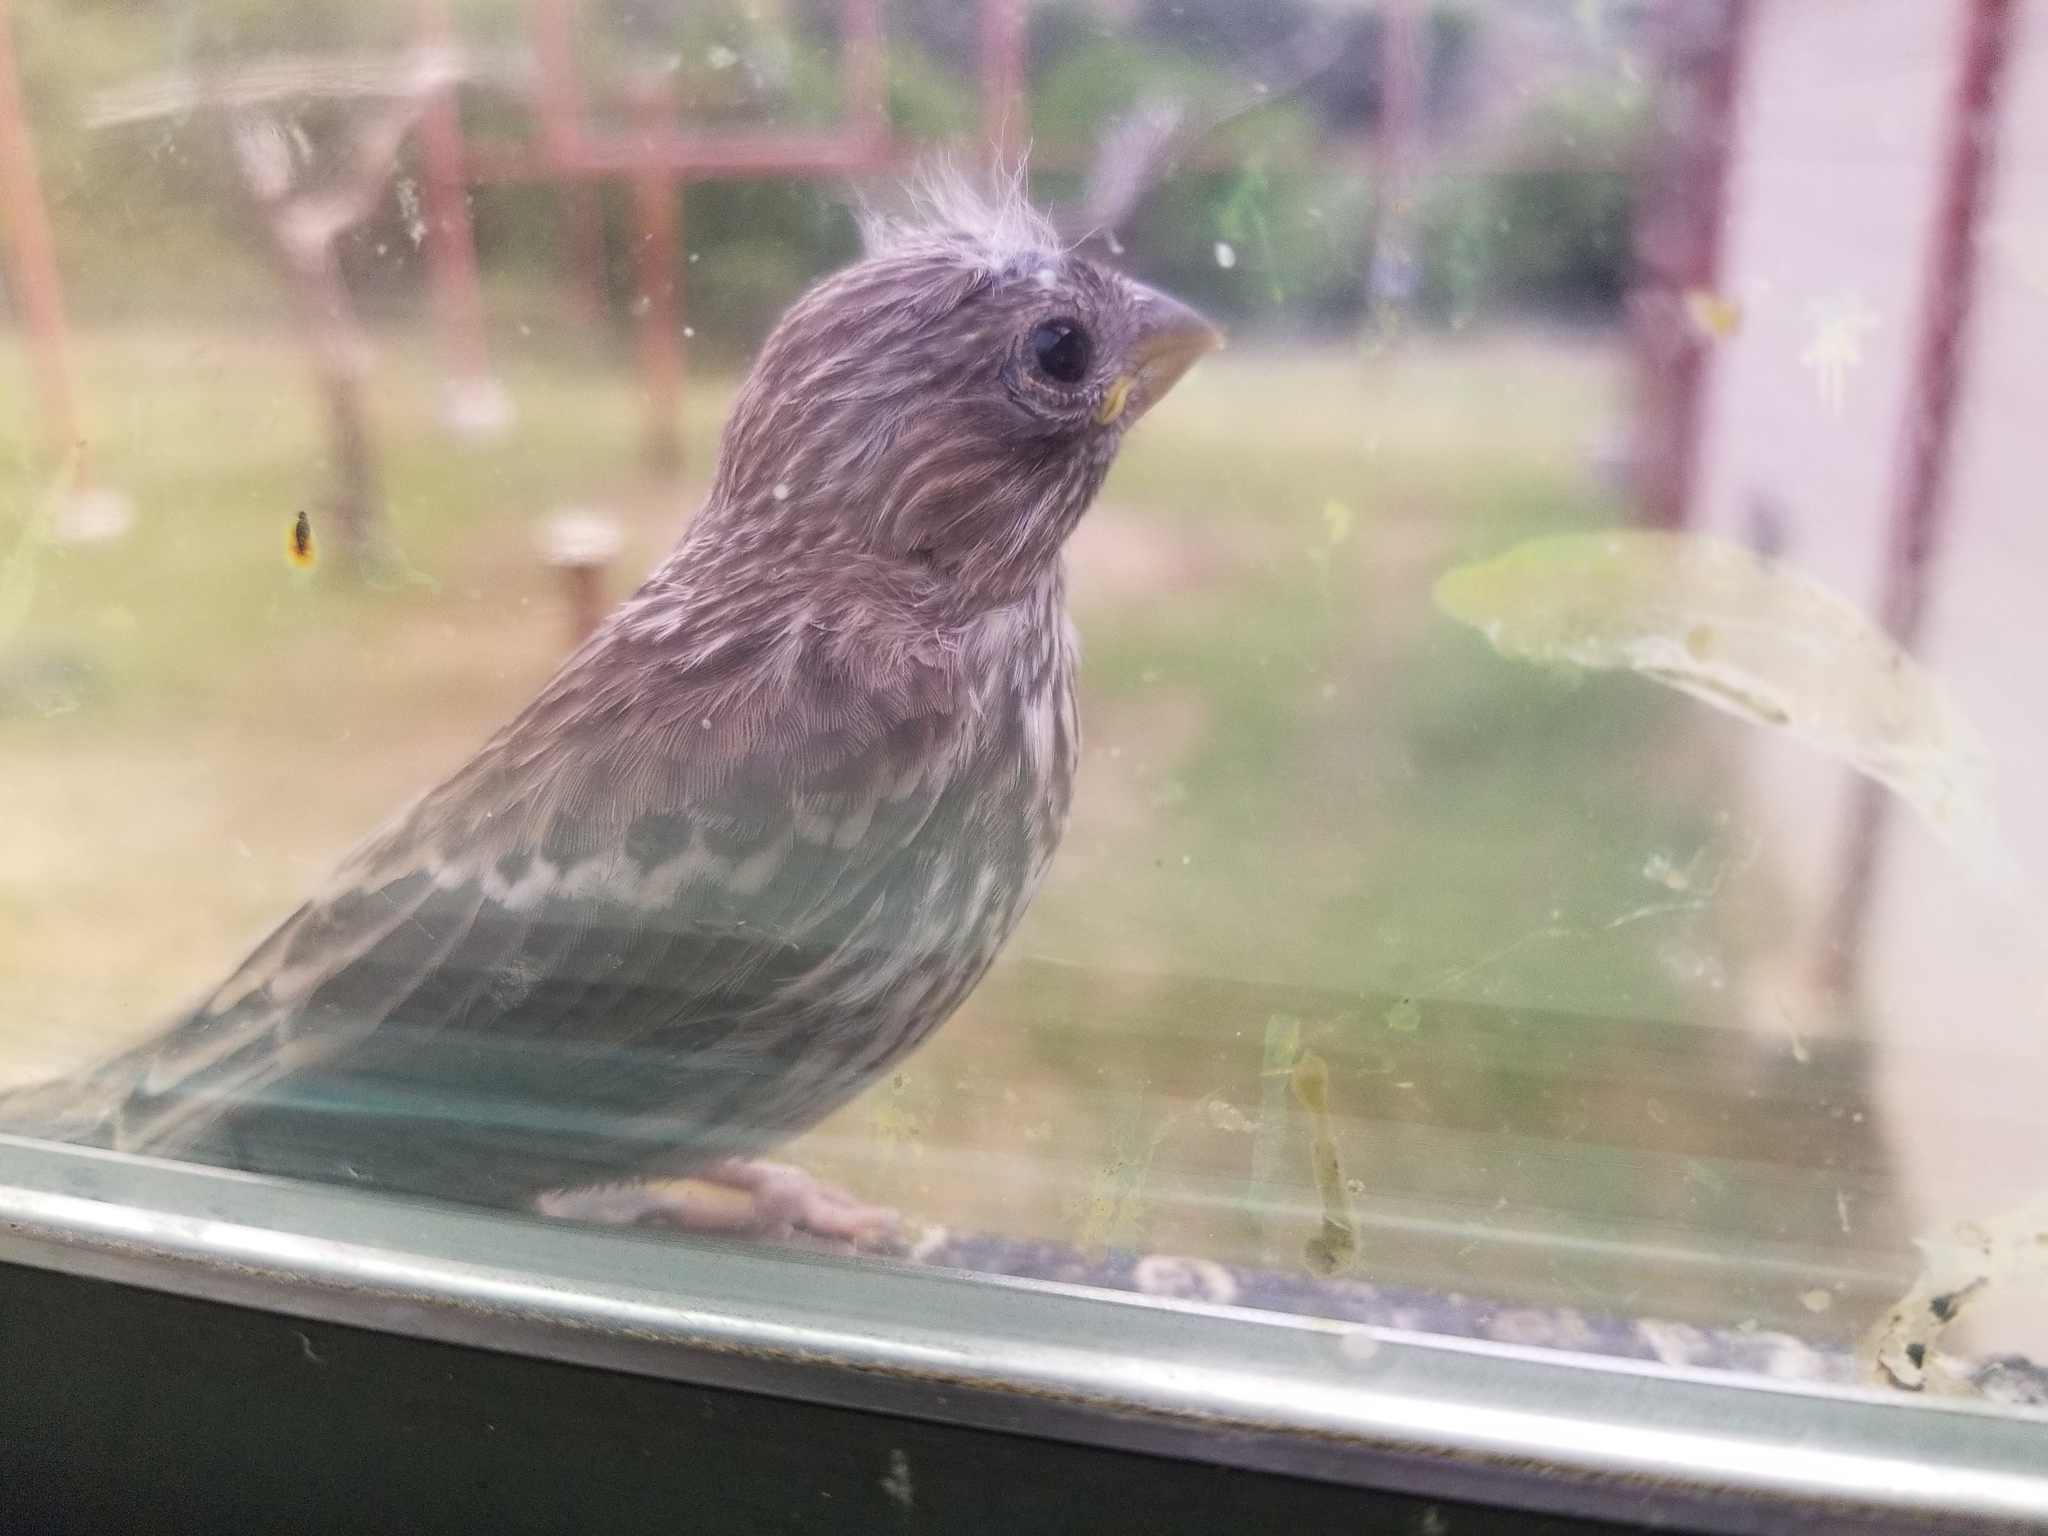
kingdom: Animalia
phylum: Chordata
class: Aves
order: Passeriformes
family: Fringillidae
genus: Haemorhous
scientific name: Haemorhous mexicanus
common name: House finch
